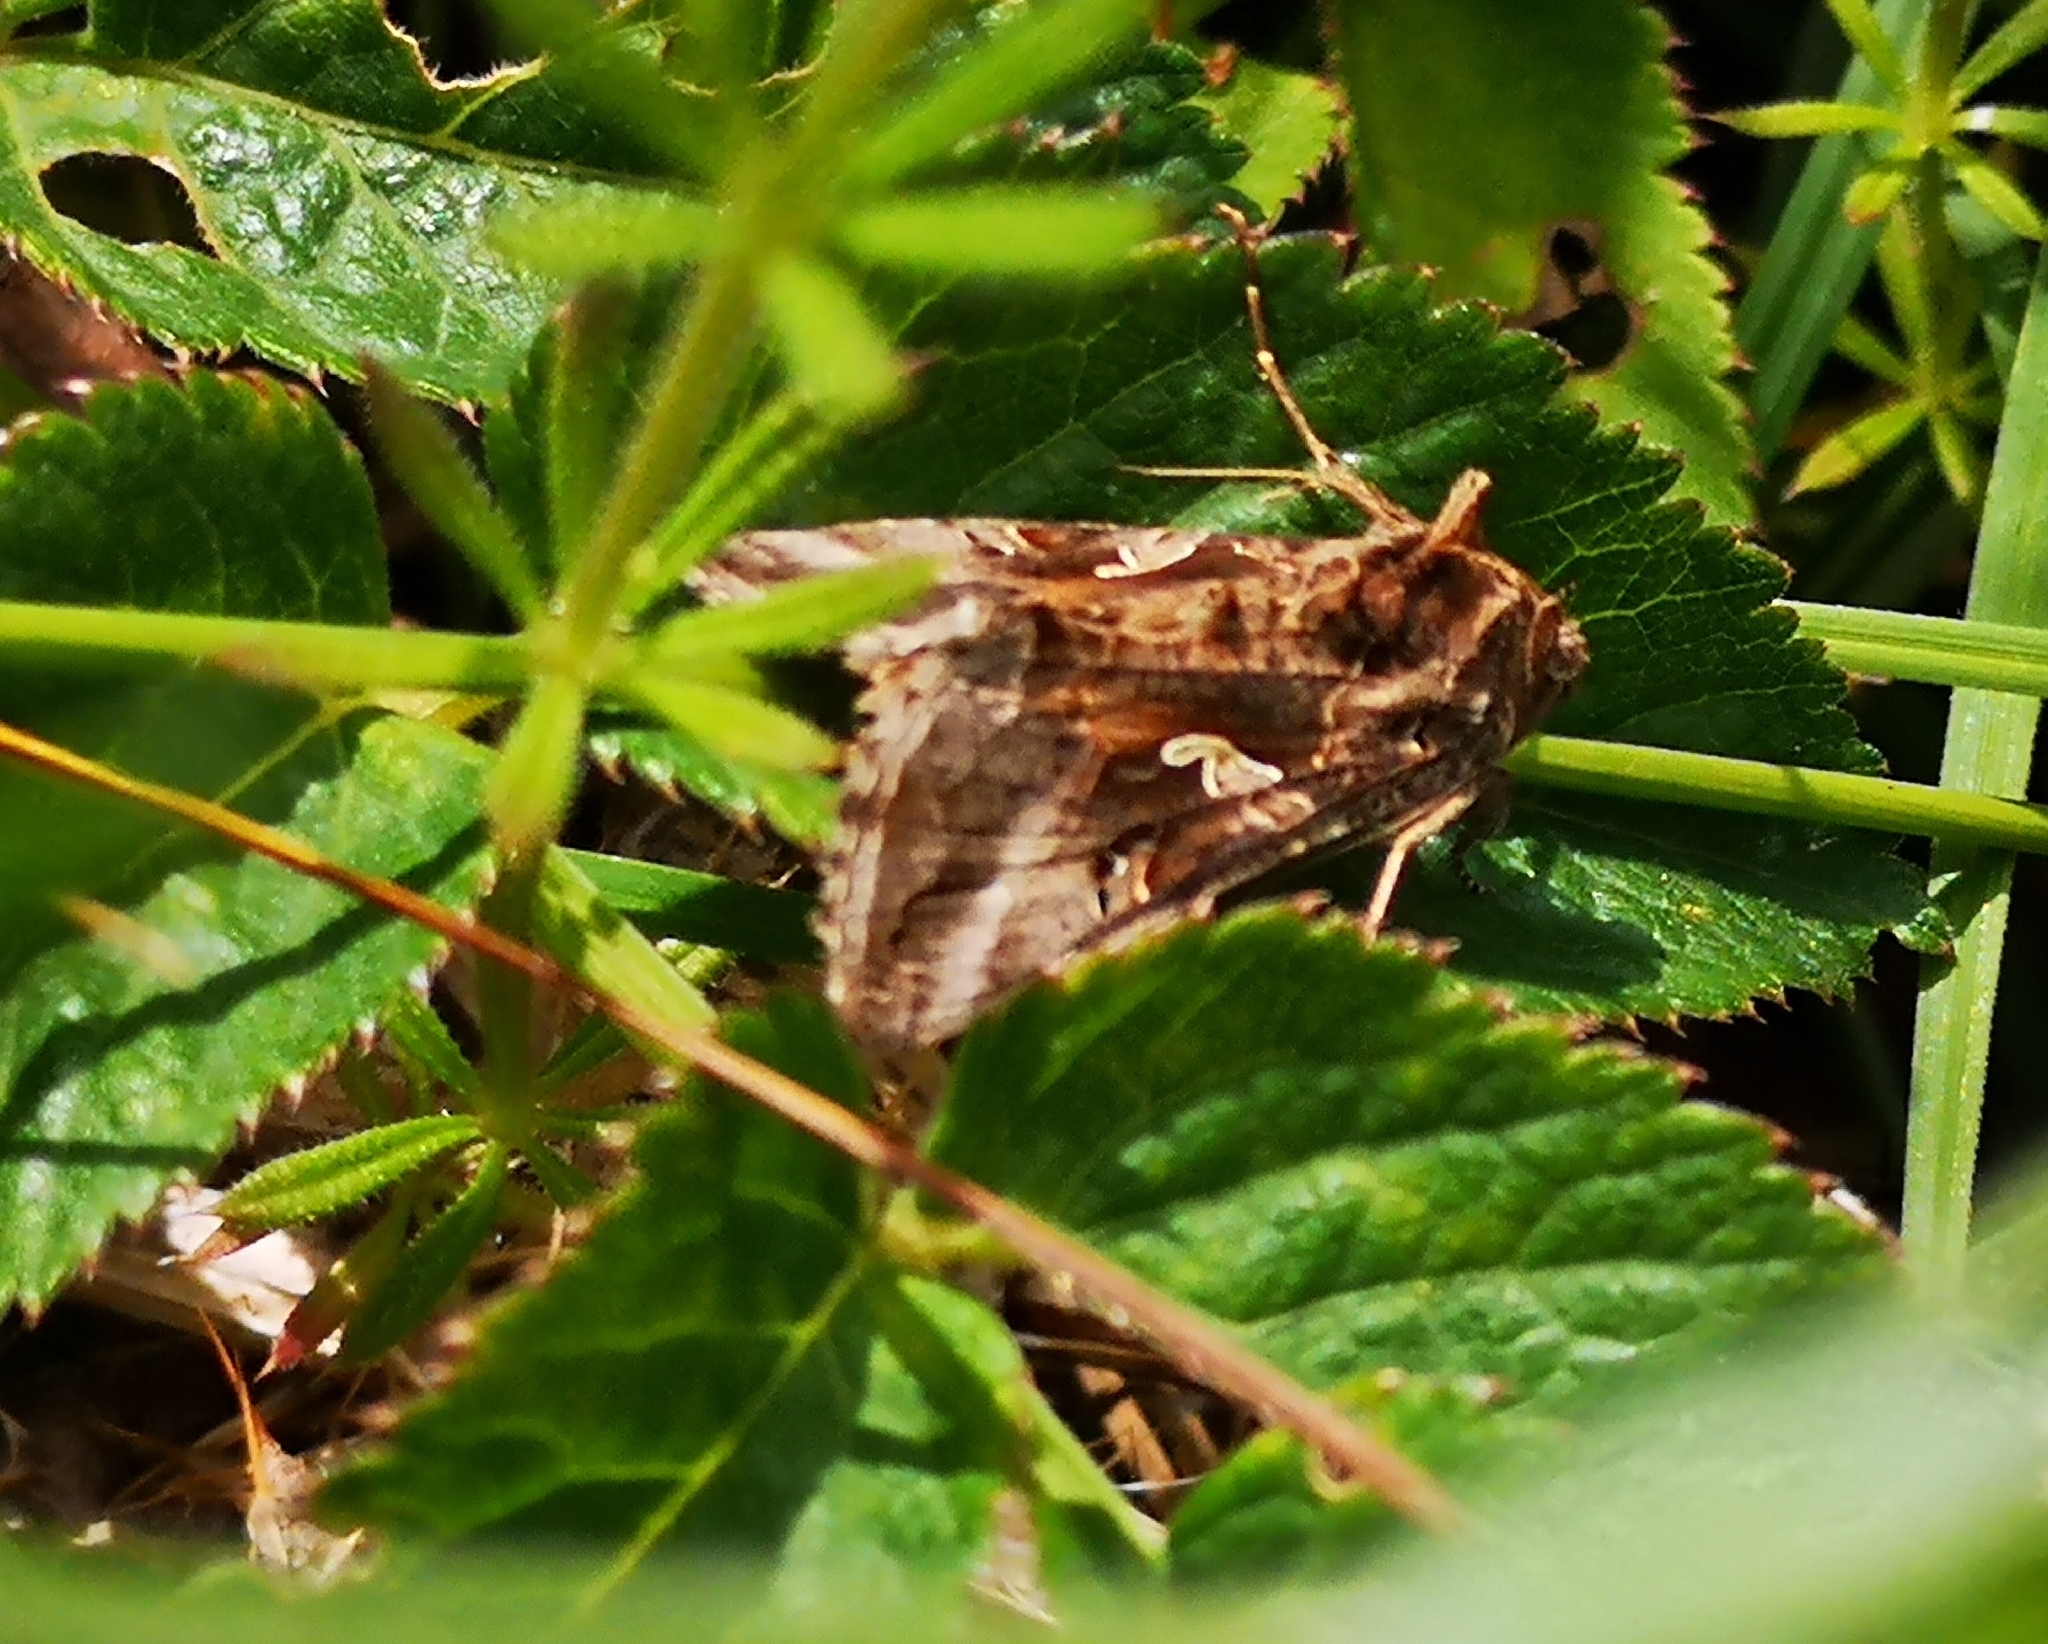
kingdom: Animalia
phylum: Arthropoda
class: Insecta
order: Lepidoptera
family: Noctuidae
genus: Autographa
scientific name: Autographa gamma
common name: Silver y
